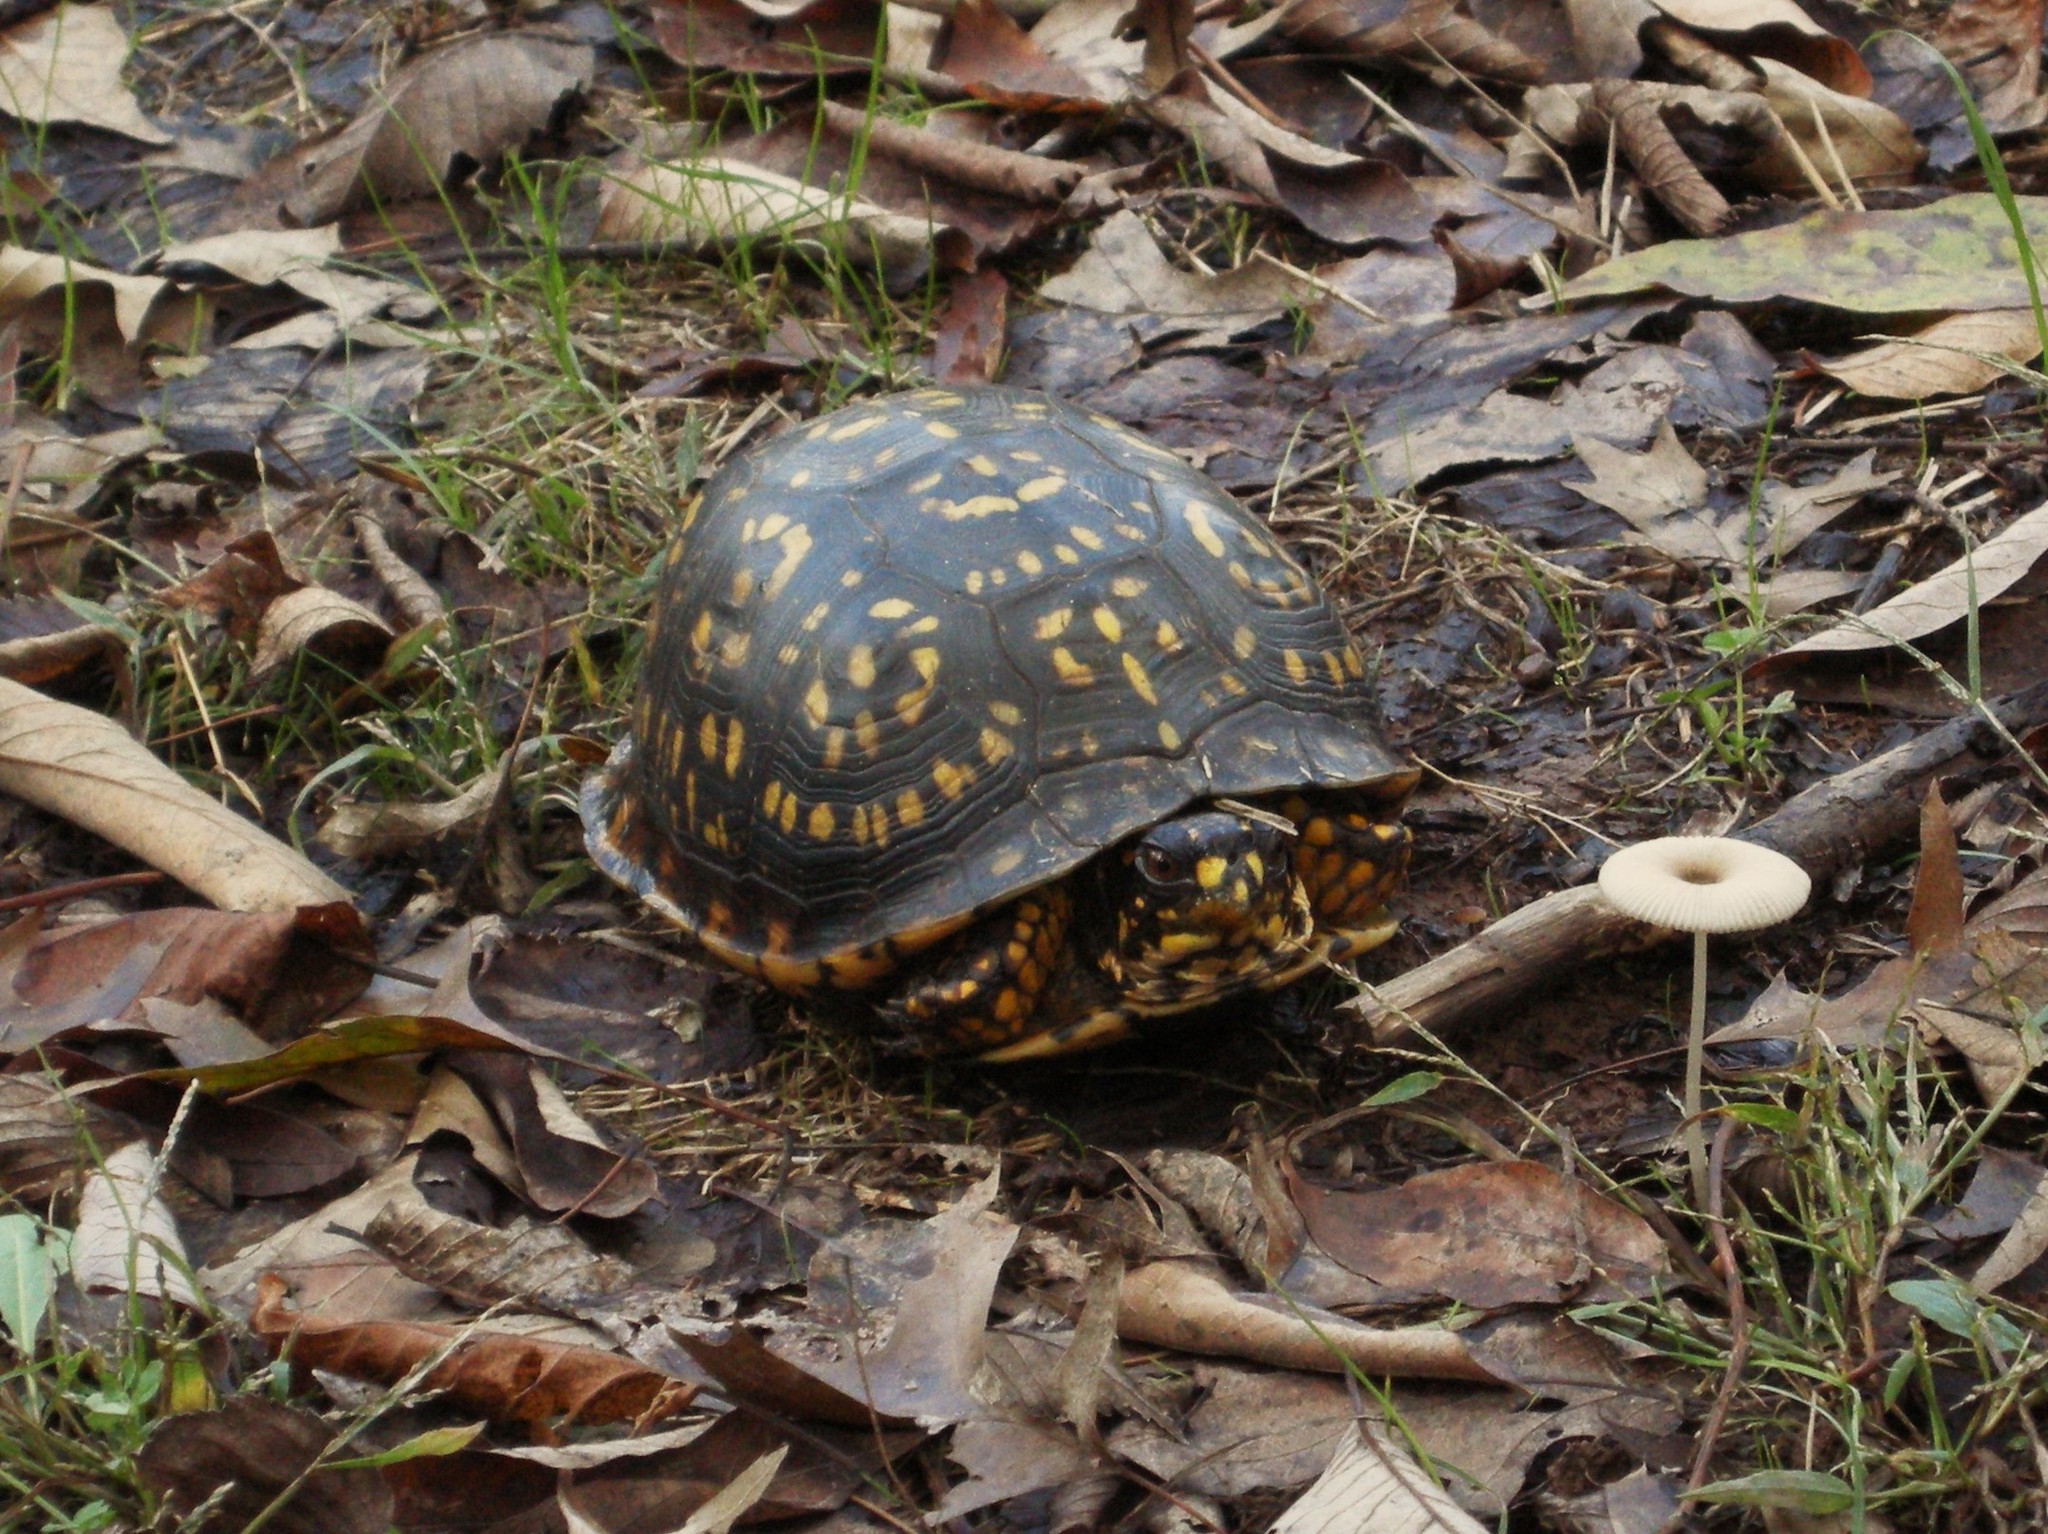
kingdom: Animalia
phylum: Chordata
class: Testudines
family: Emydidae
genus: Terrapene
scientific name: Terrapene carolina
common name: Common box turtle
